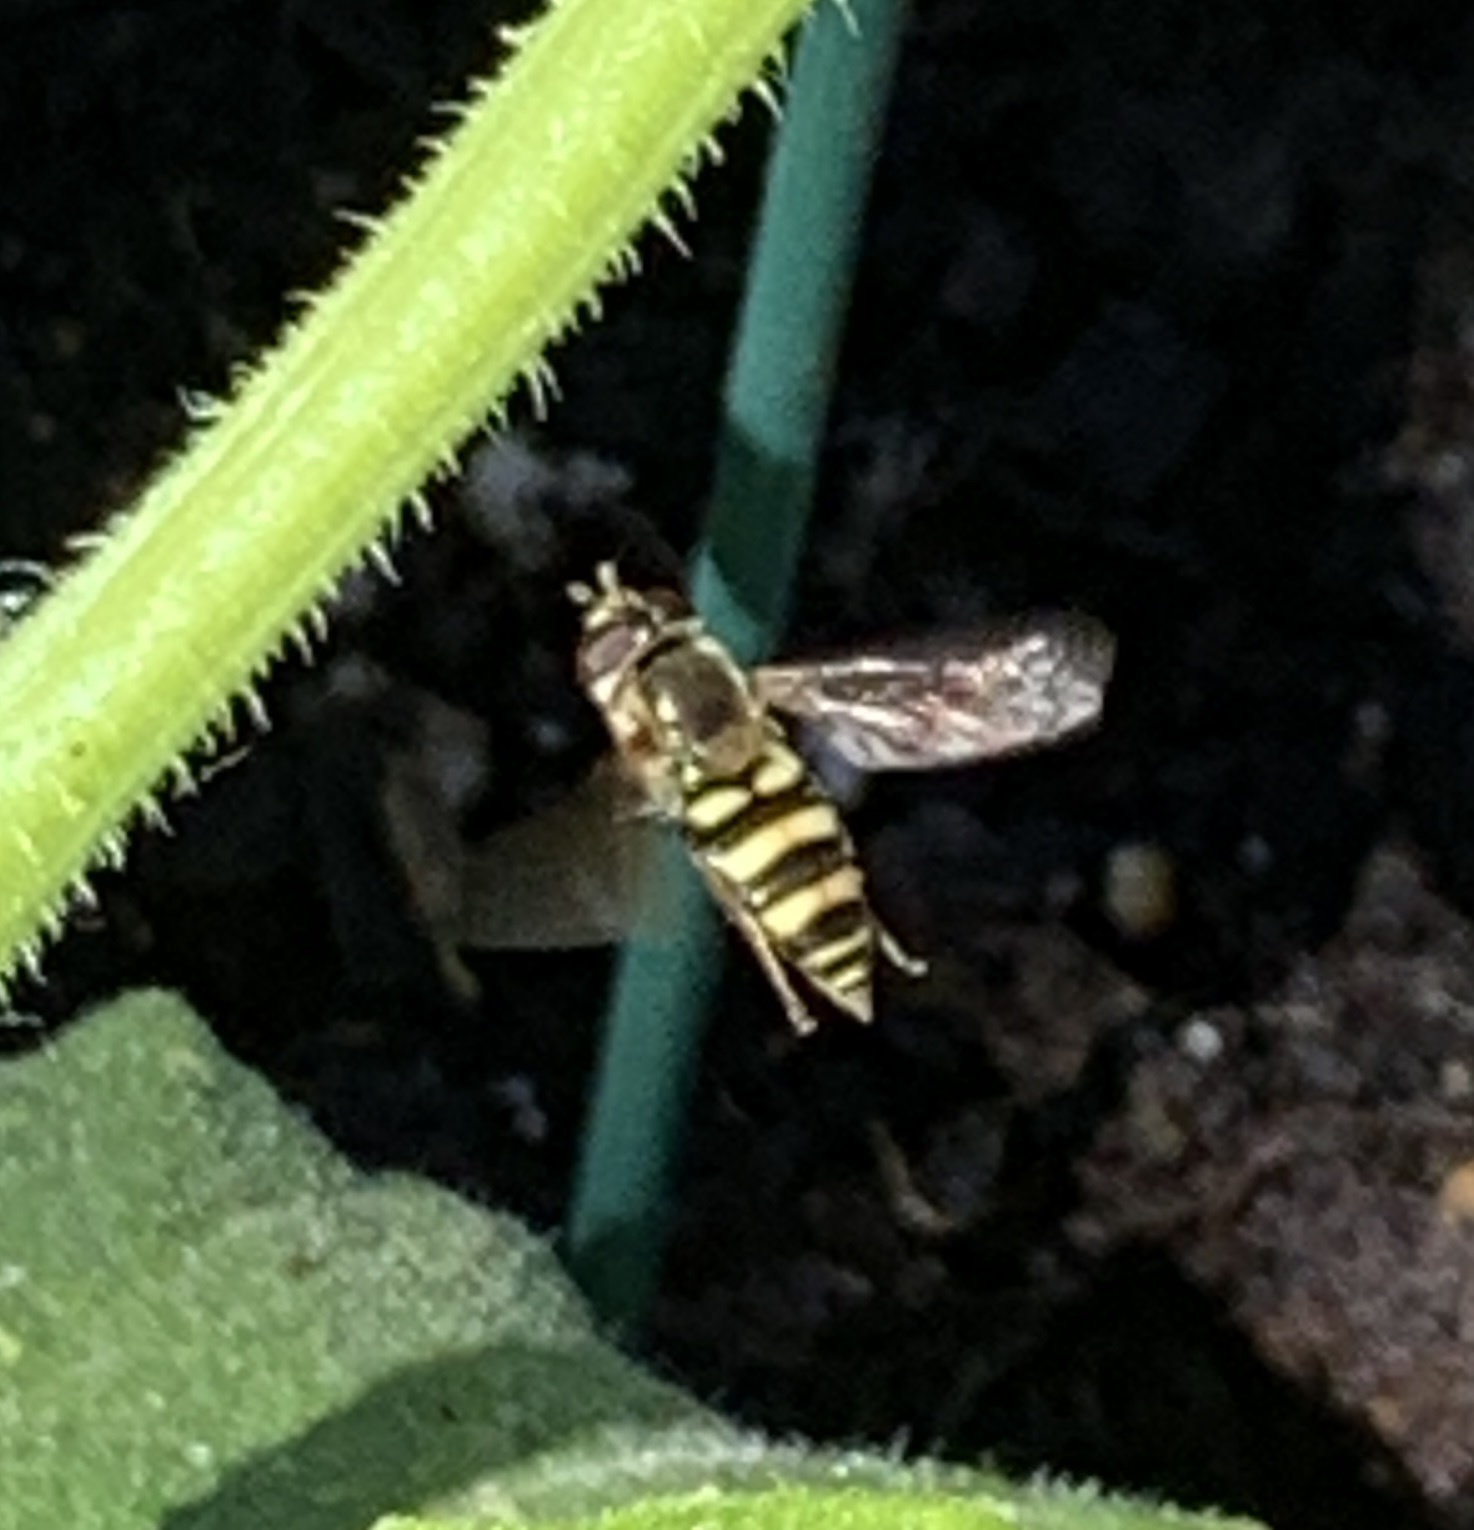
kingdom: Animalia
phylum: Arthropoda
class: Insecta
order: Diptera
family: Syrphidae
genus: Eupeodes
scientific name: Eupeodes
